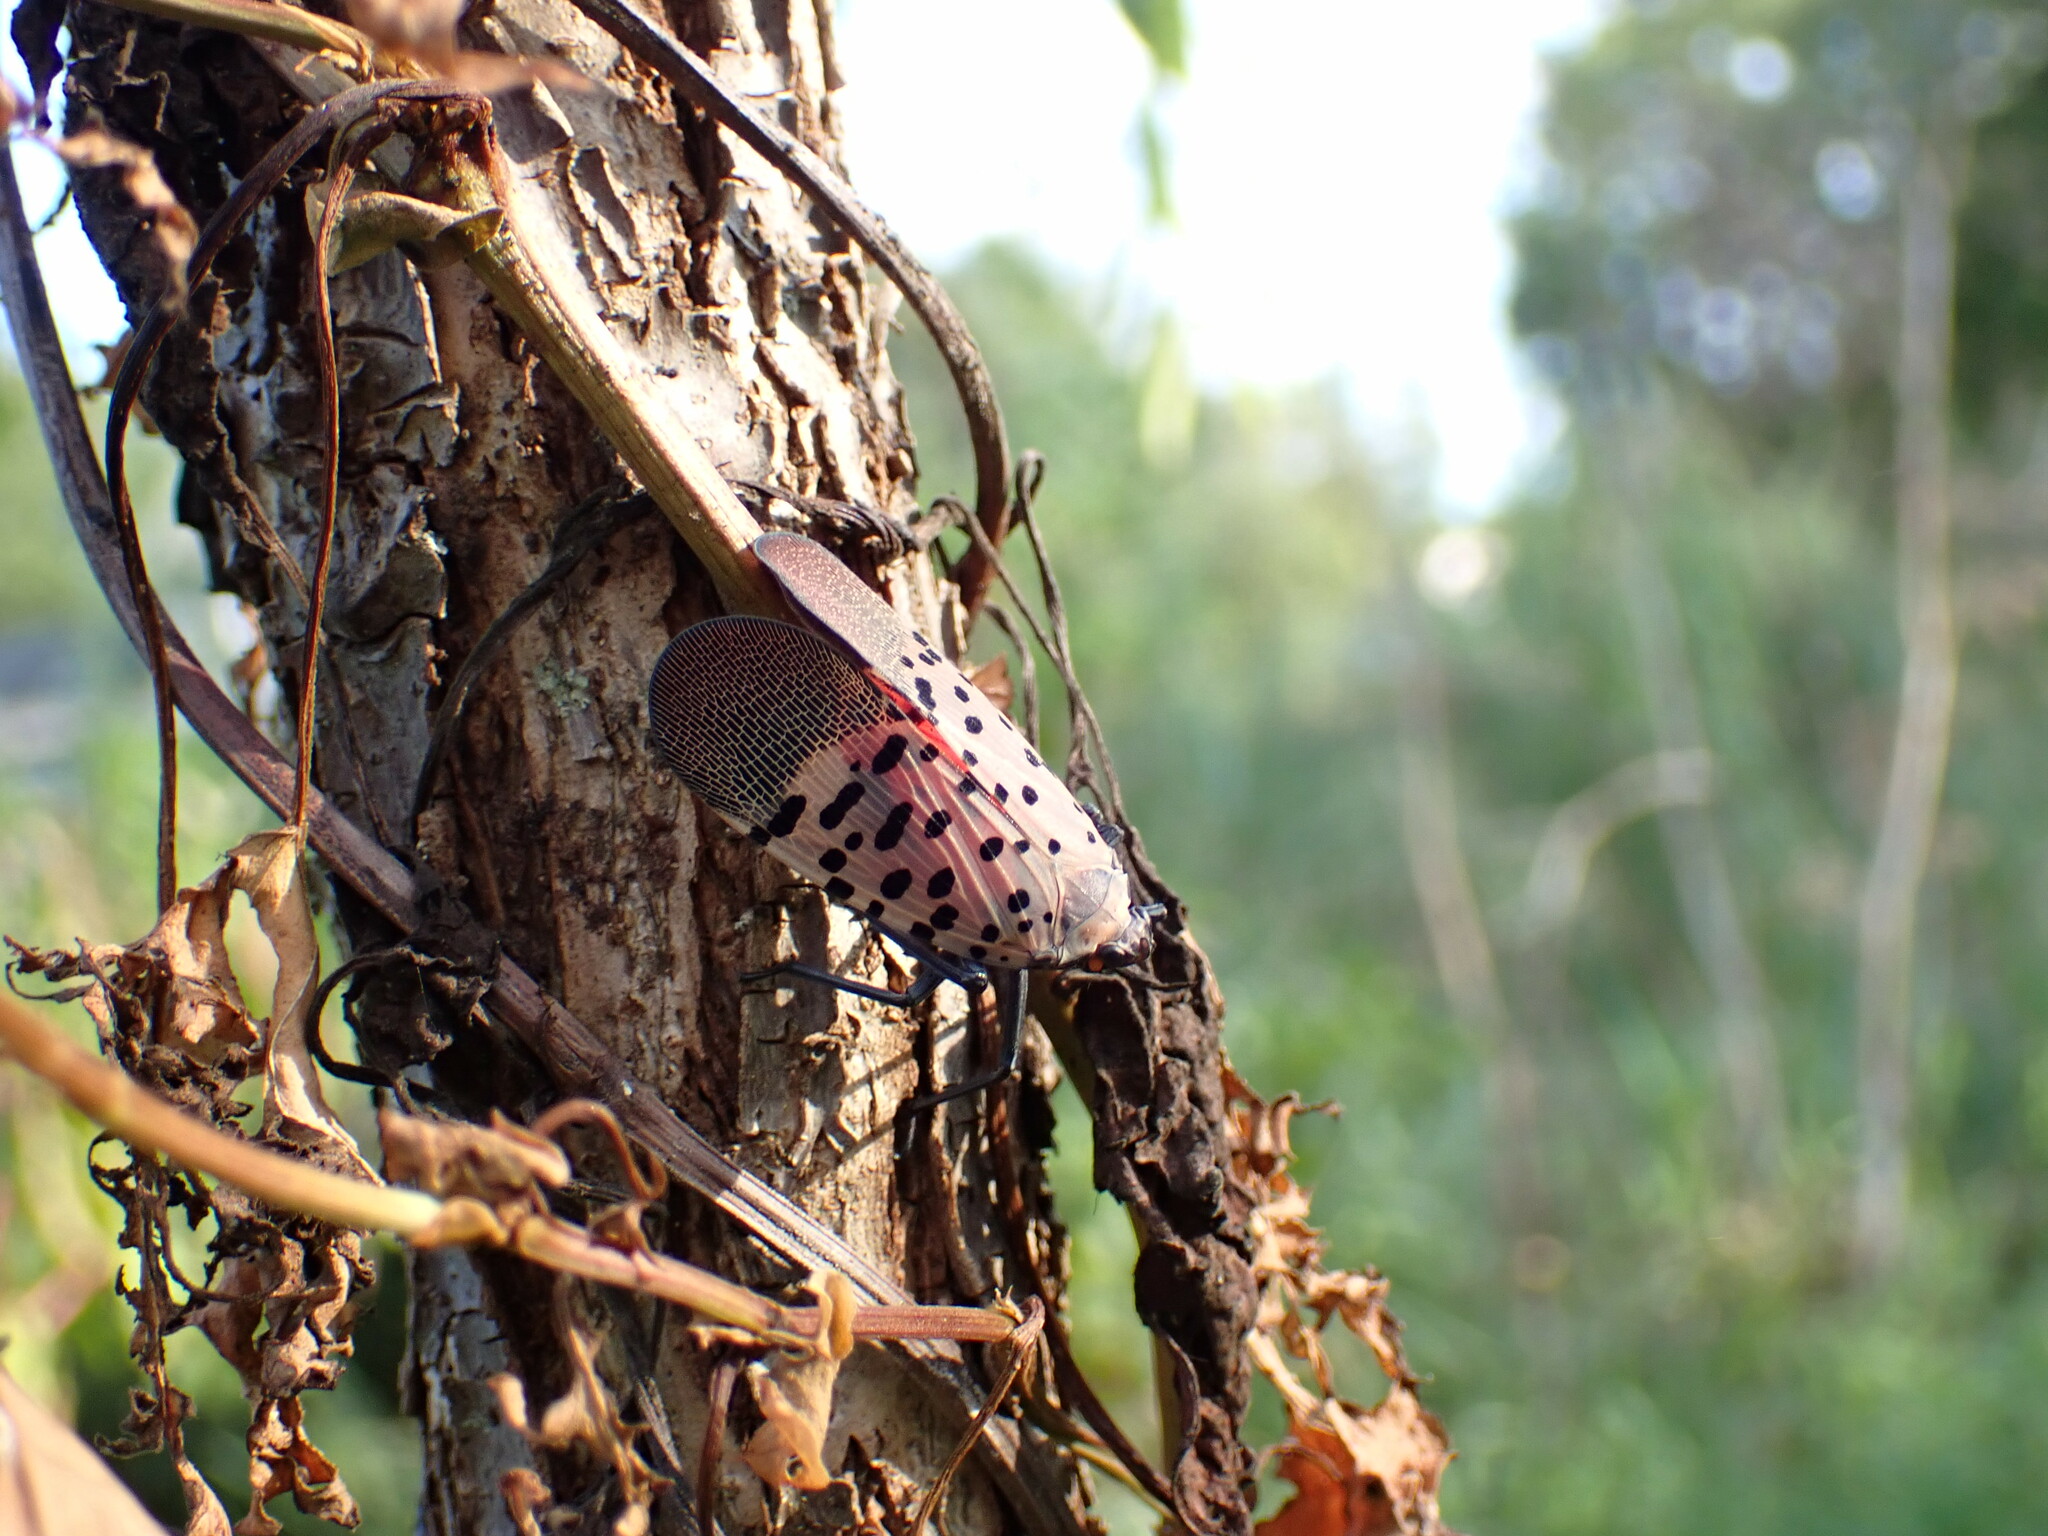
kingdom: Animalia
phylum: Arthropoda
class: Insecta
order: Hemiptera
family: Fulgoridae
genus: Lycorma
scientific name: Lycorma delicatula
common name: Spotted lanternfly
